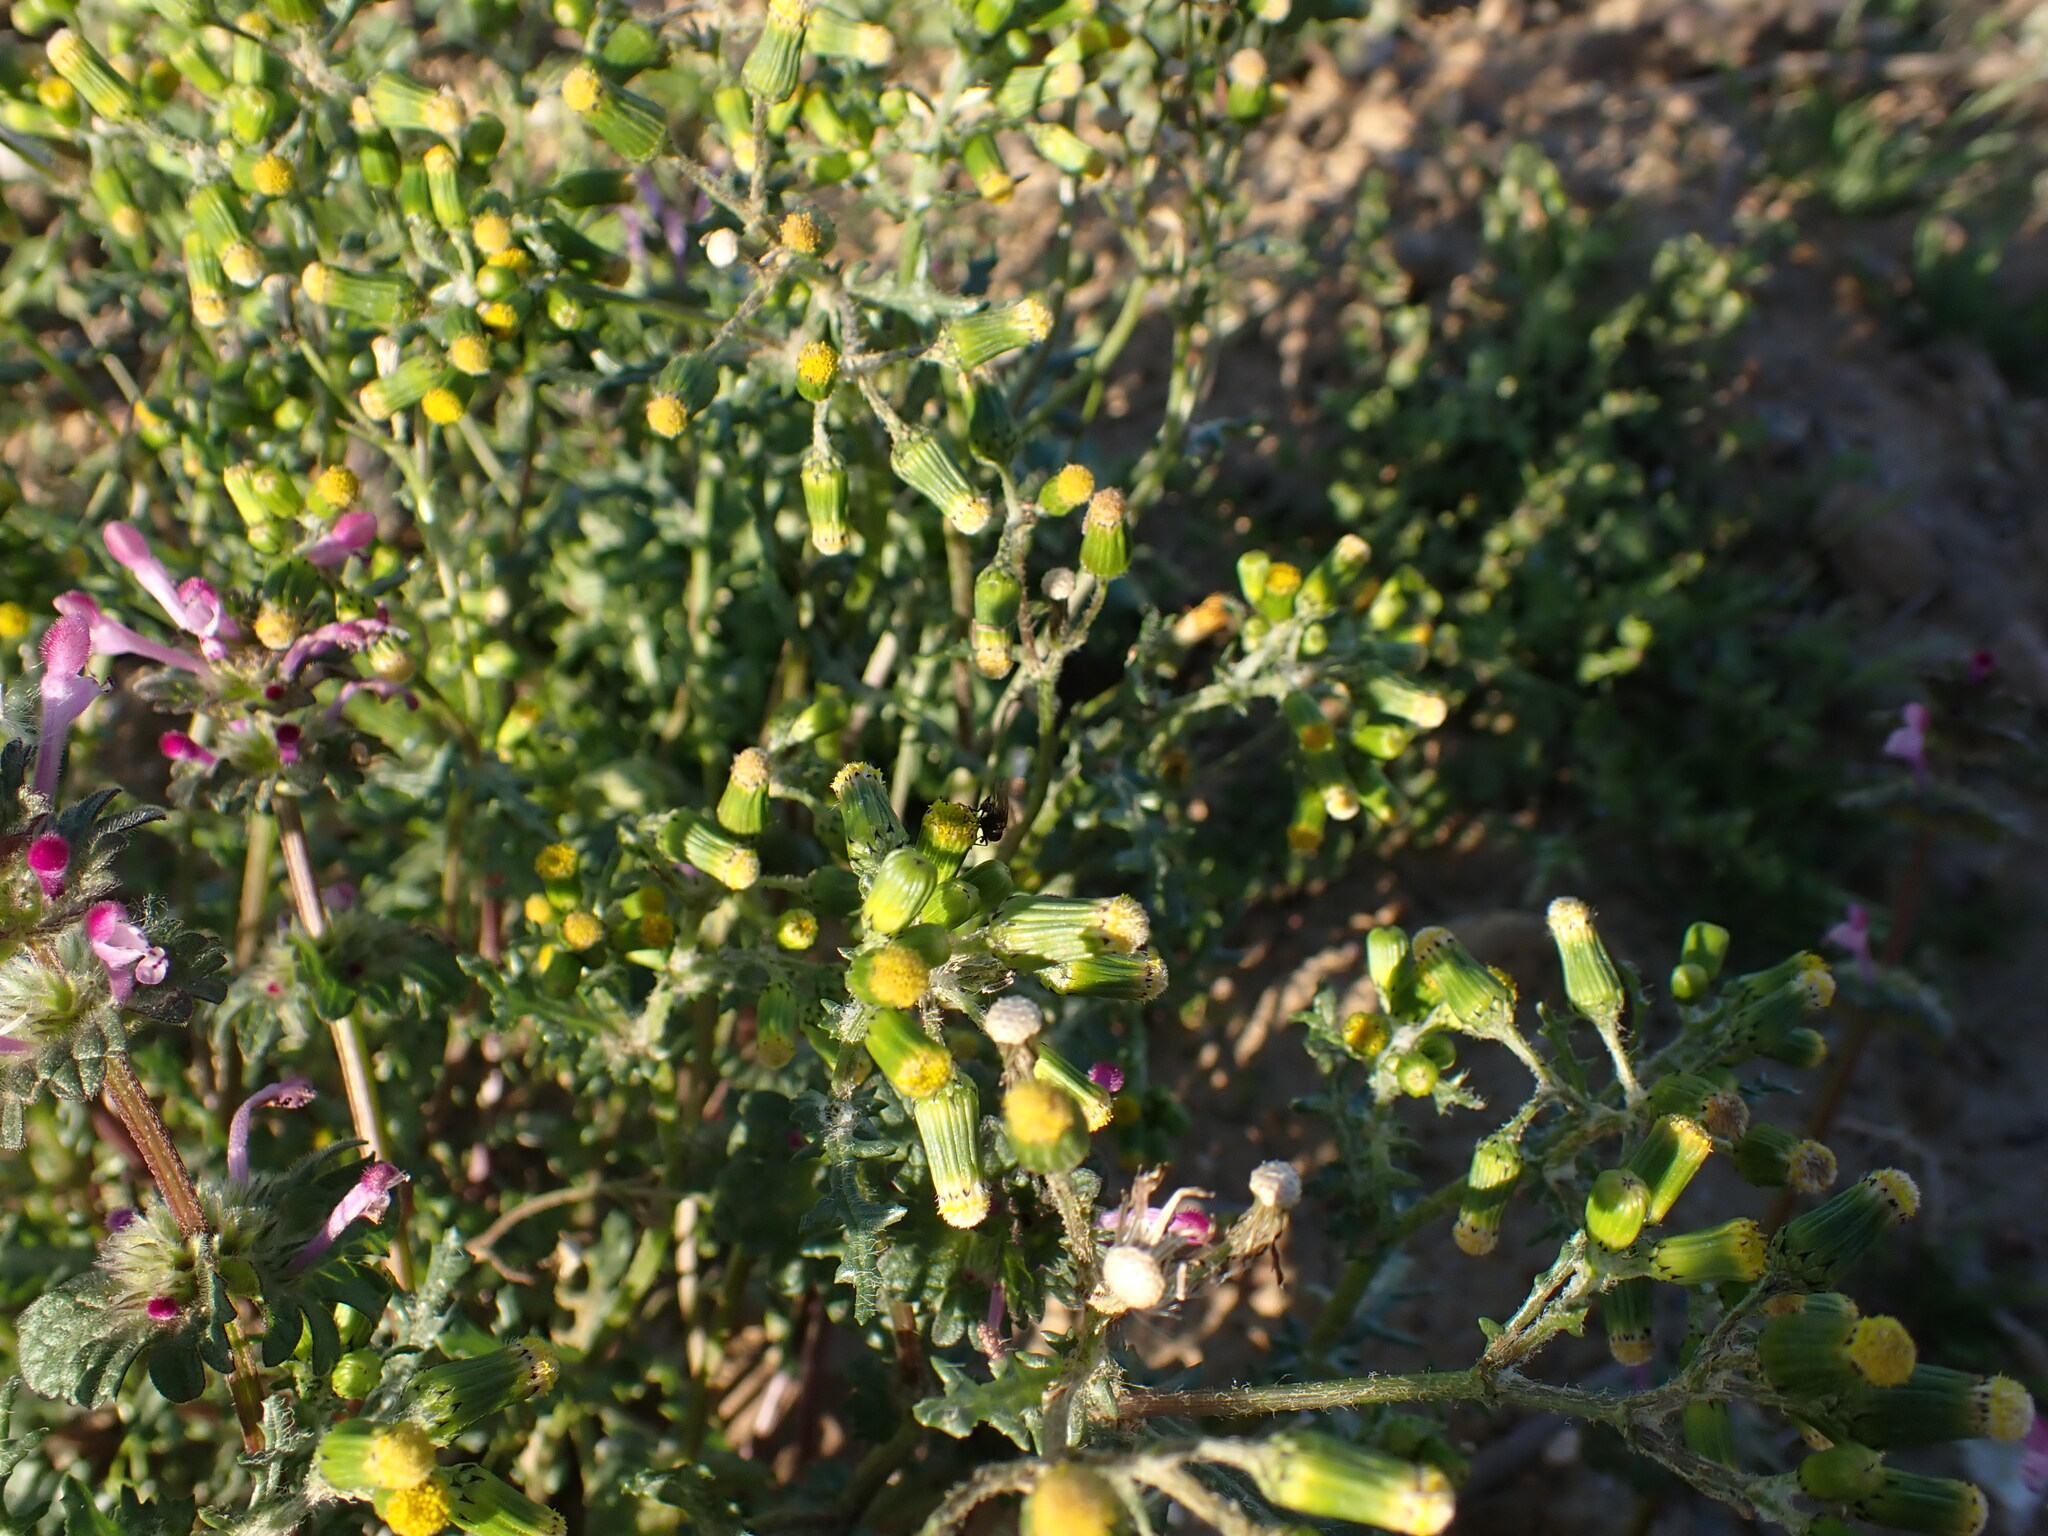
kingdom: Plantae
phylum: Tracheophyta
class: Magnoliopsida
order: Asterales
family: Asteraceae
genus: Senecio
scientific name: Senecio vulgaris
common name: Old-man-in-the-spring
